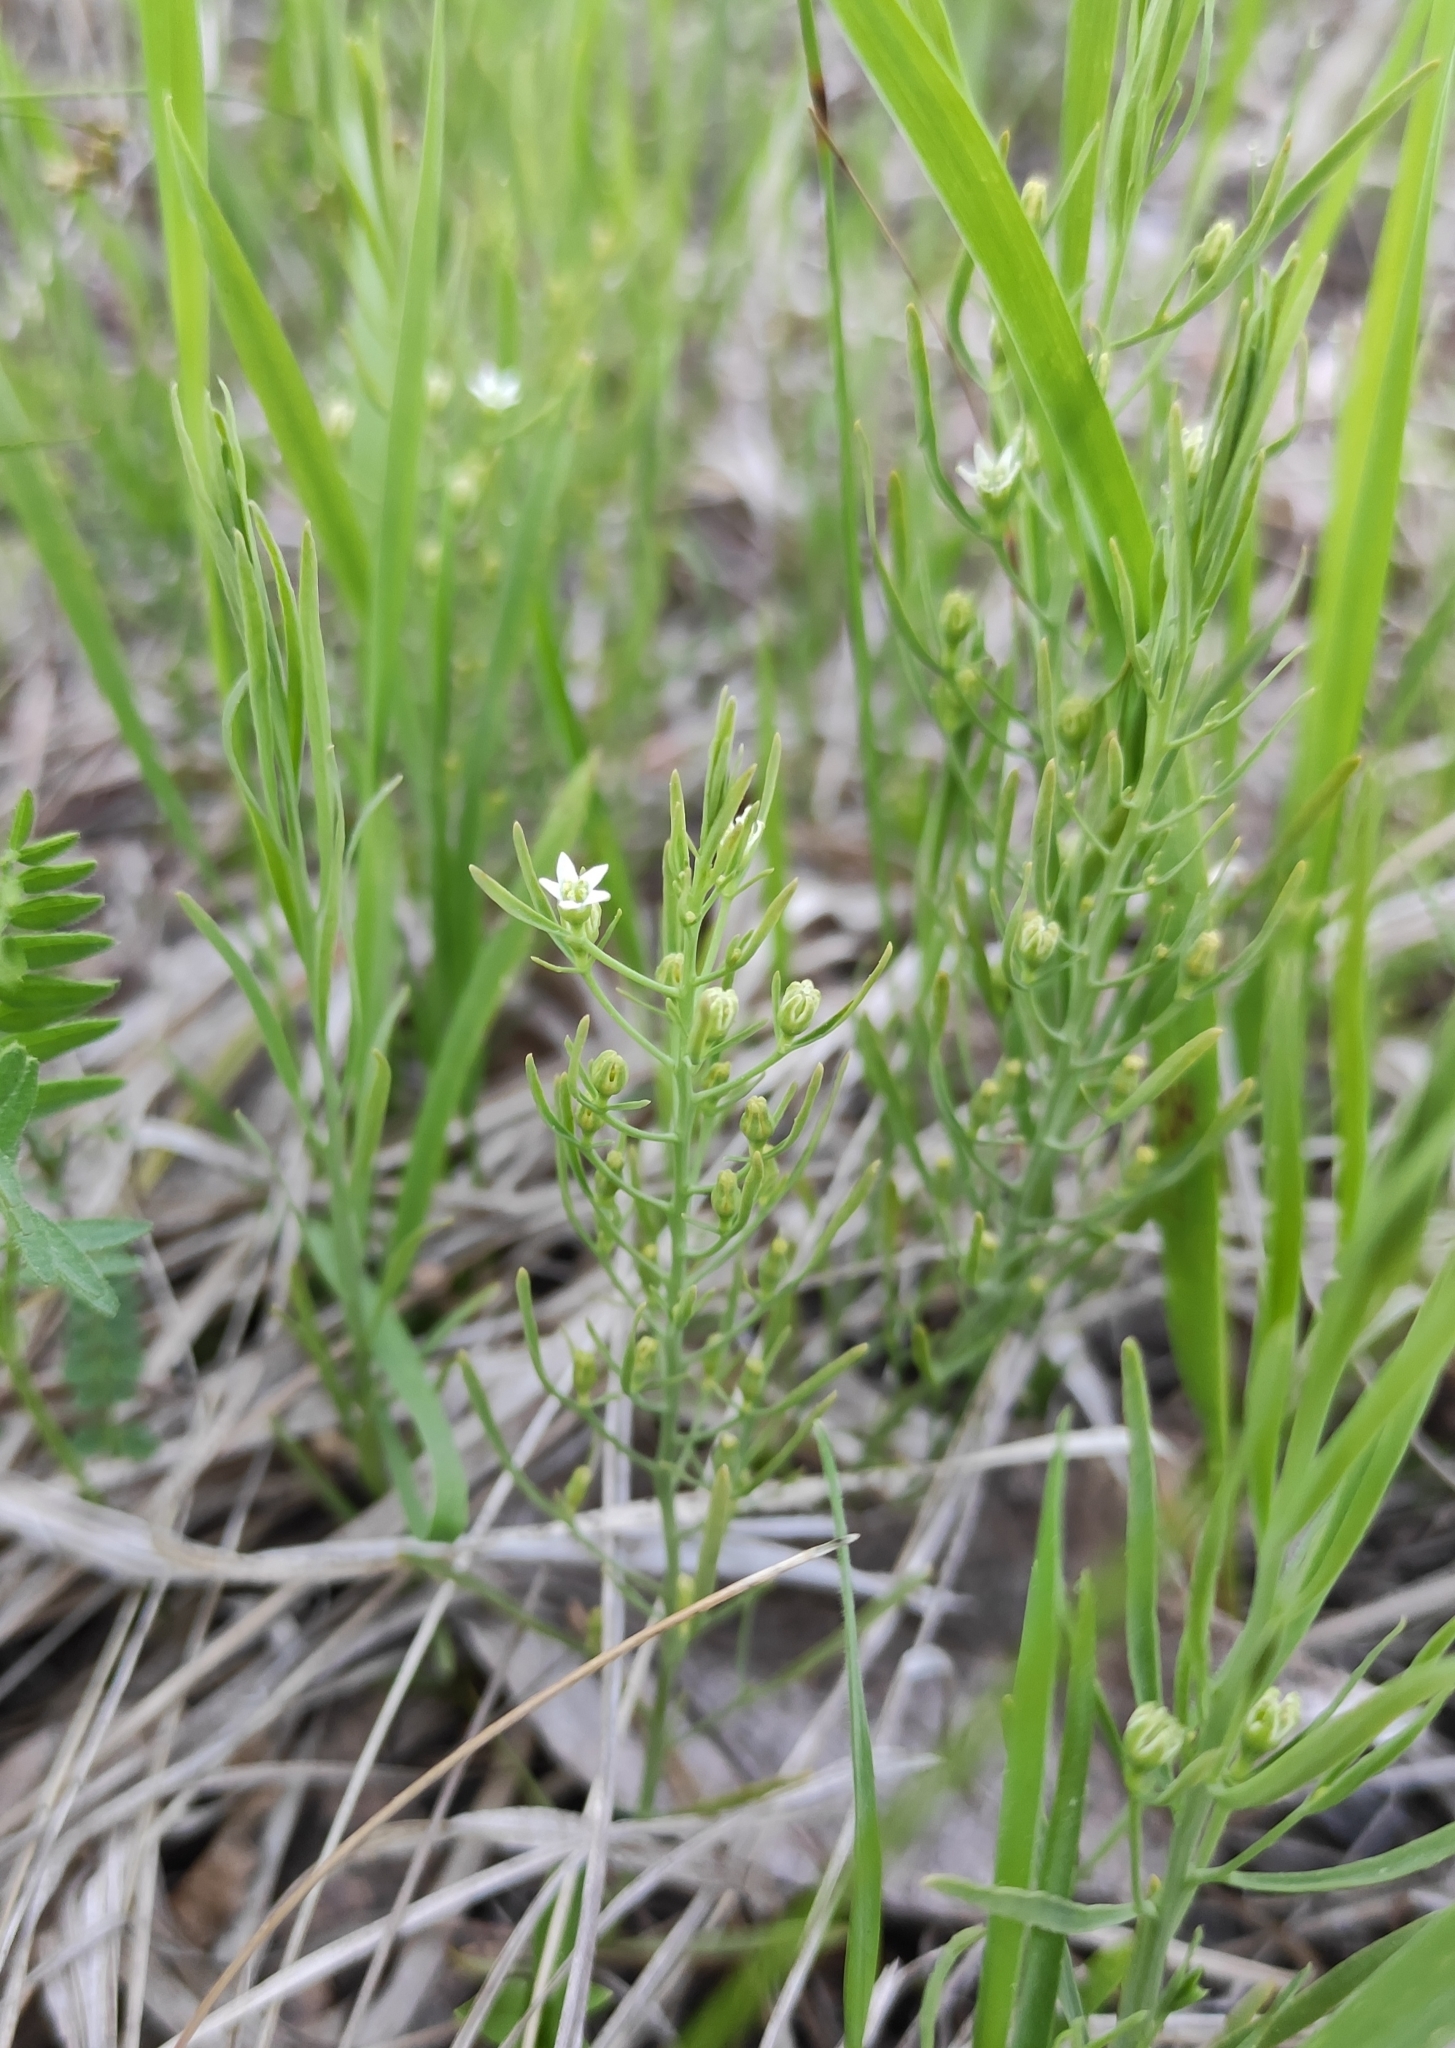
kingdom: Plantae
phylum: Tracheophyta
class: Magnoliopsida
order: Santalales
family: Thesiaceae
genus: Thesium
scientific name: Thesium repens
